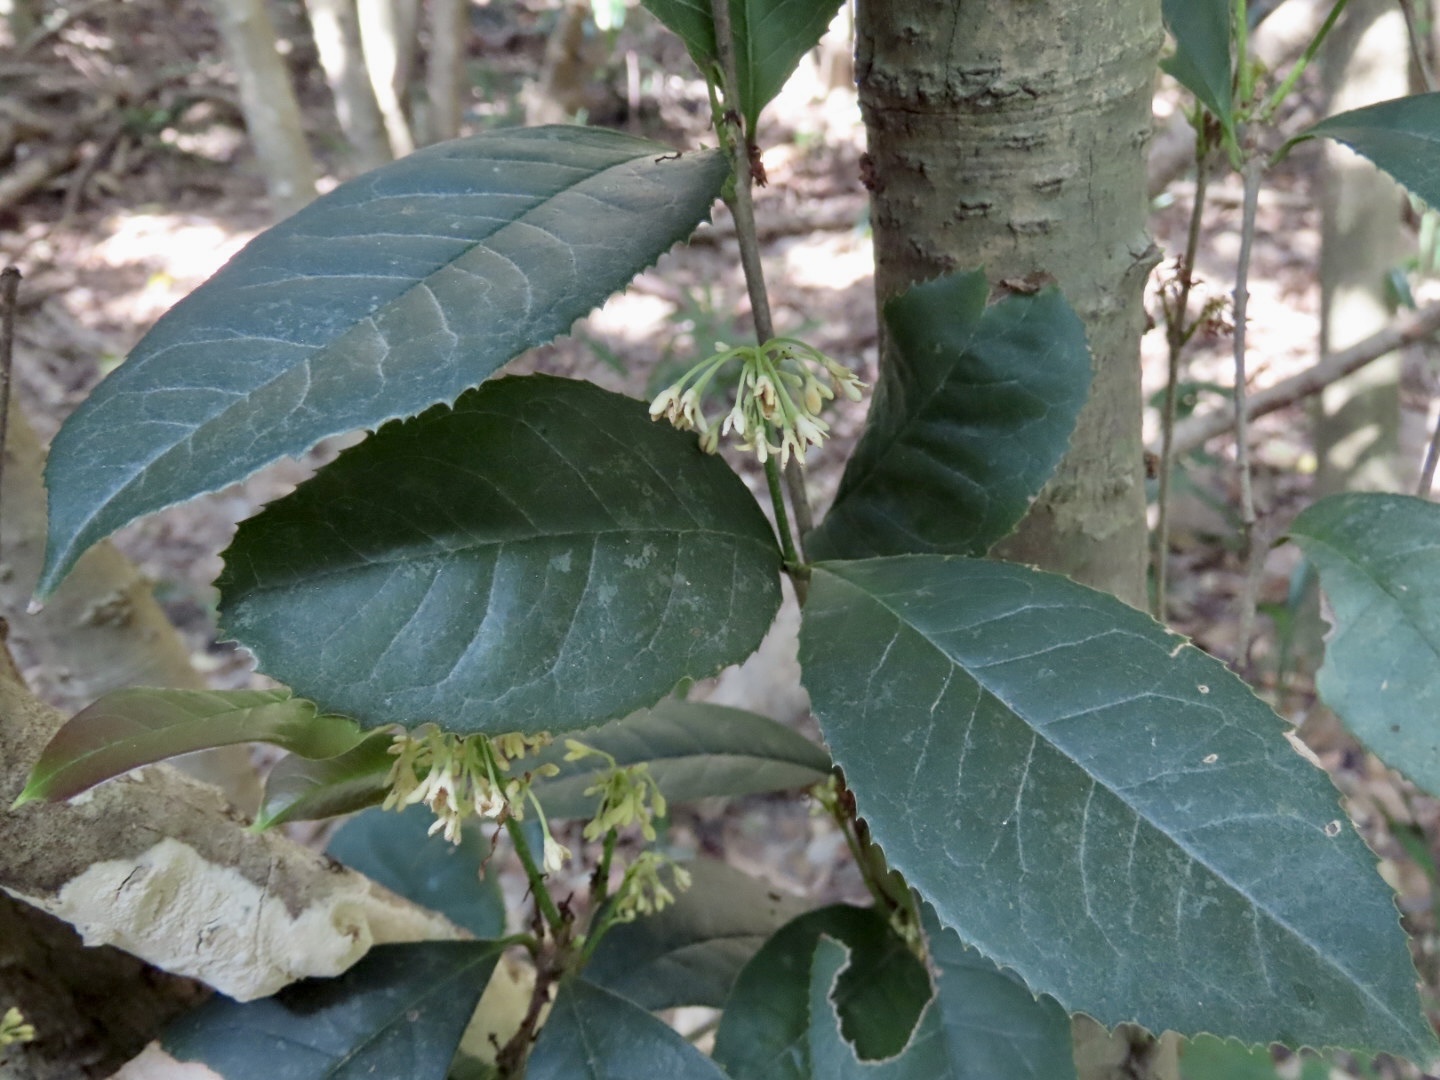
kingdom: Plantae
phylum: Tracheophyta
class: Magnoliopsida
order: Lamiales
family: Oleaceae
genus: Osmanthus
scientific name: Osmanthus fragrans
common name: Sweet osmanthus
